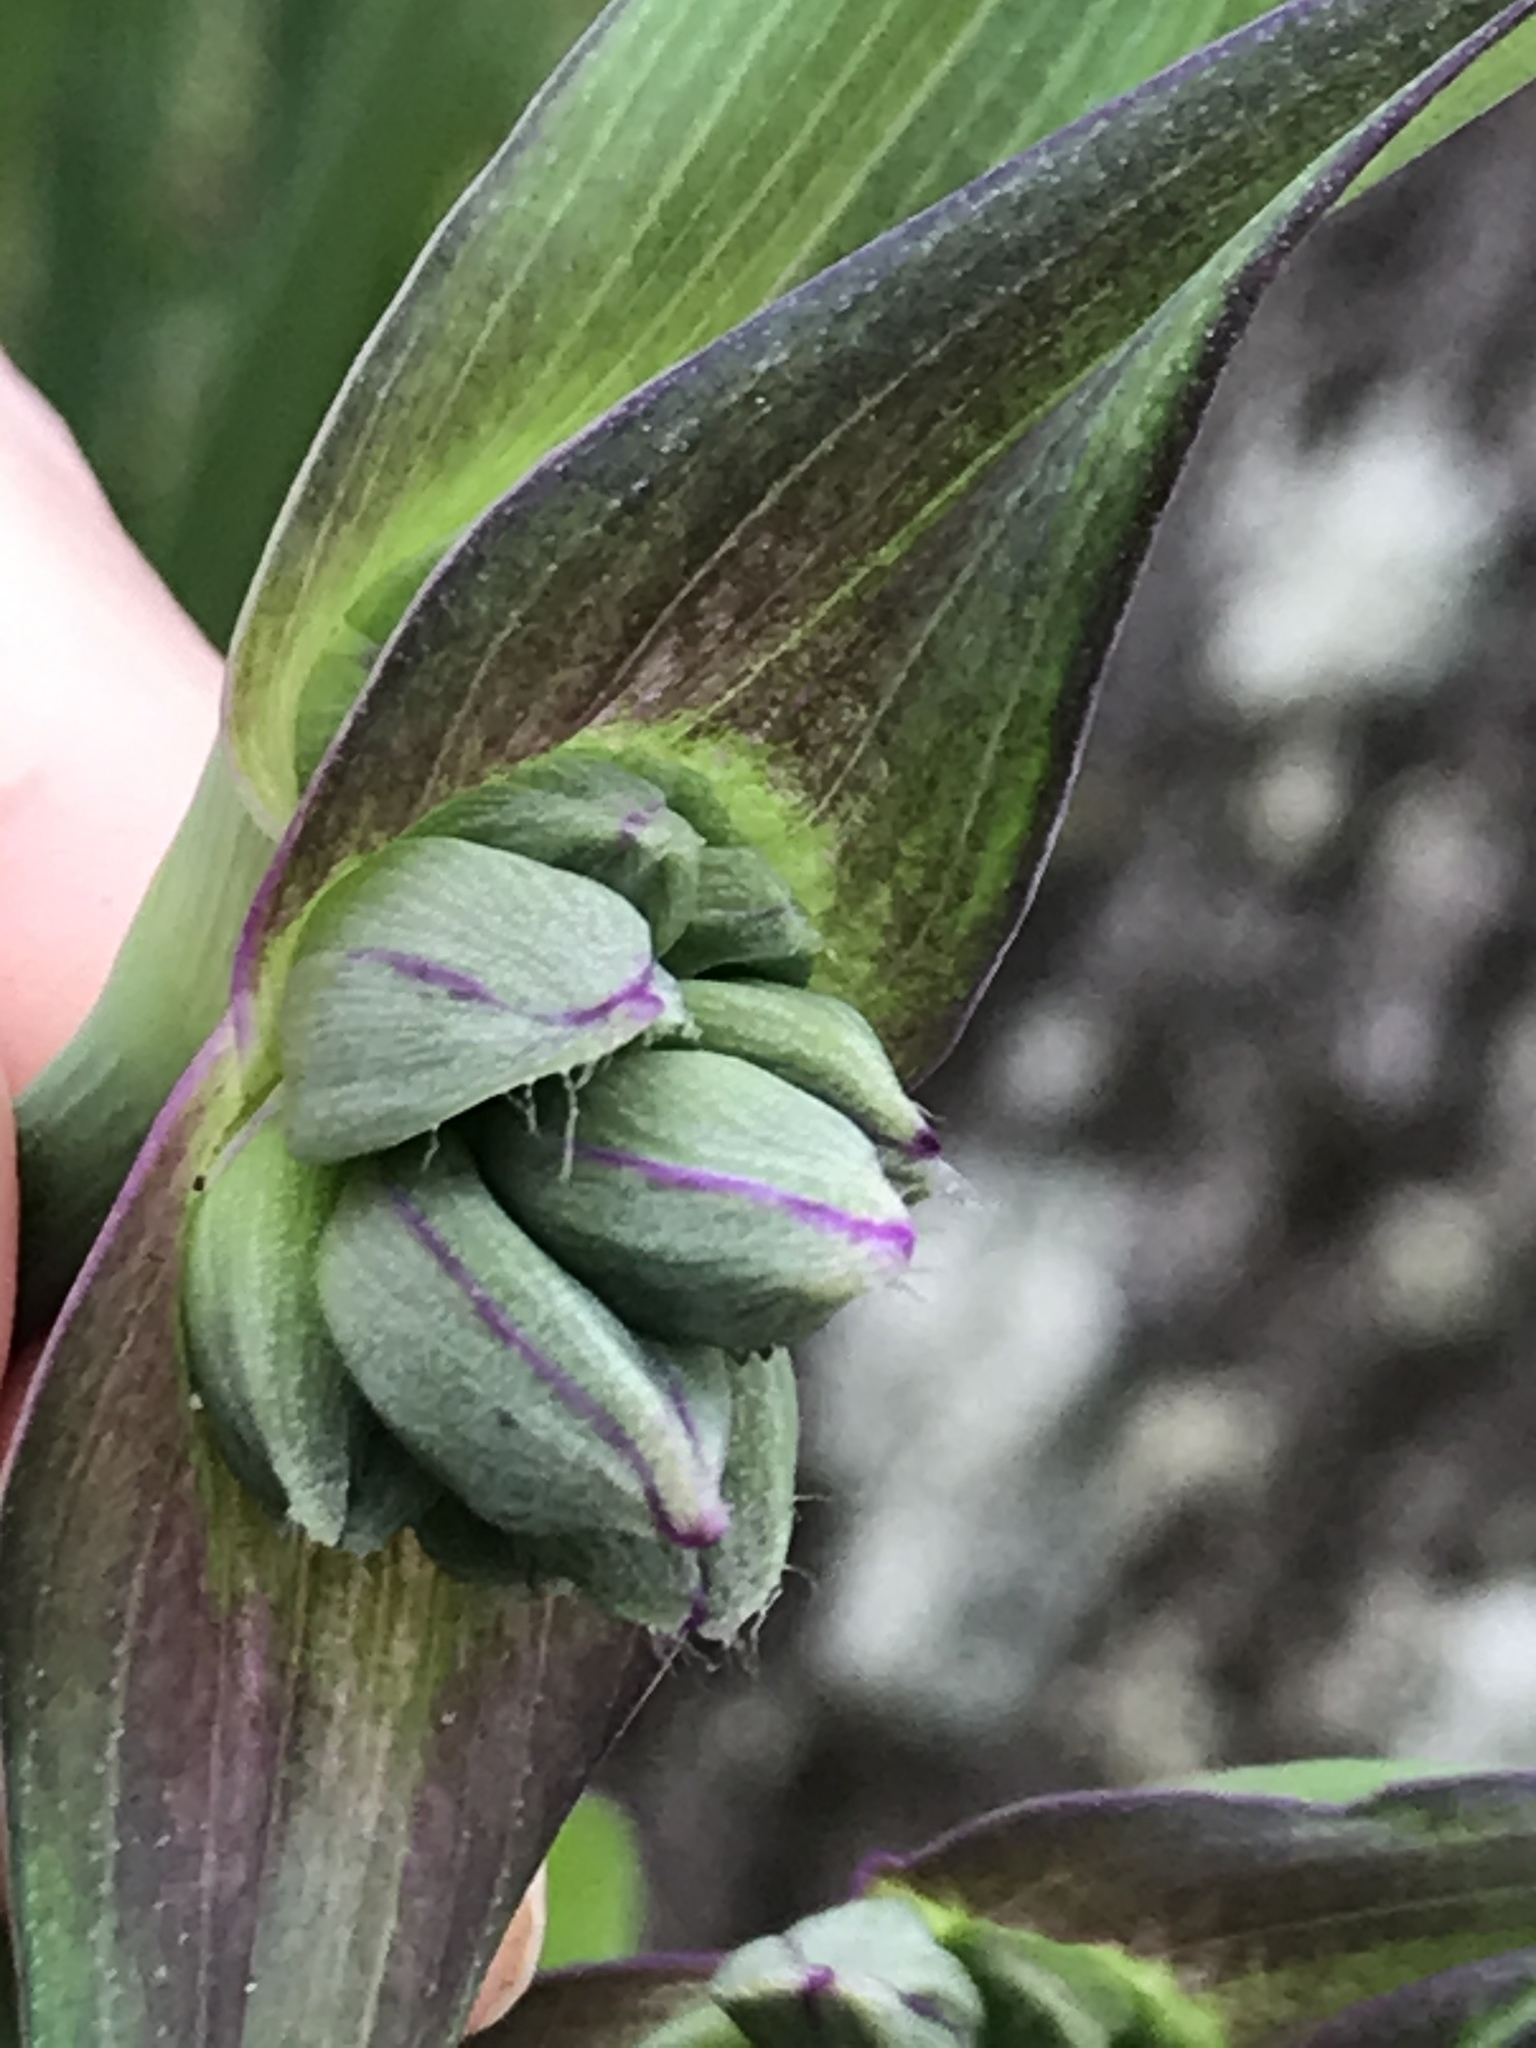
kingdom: Plantae
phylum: Tracheophyta
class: Liliopsida
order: Commelinales
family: Commelinaceae
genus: Tradescantia
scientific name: Tradescantia ohiensis
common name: Ohio spiderwort
